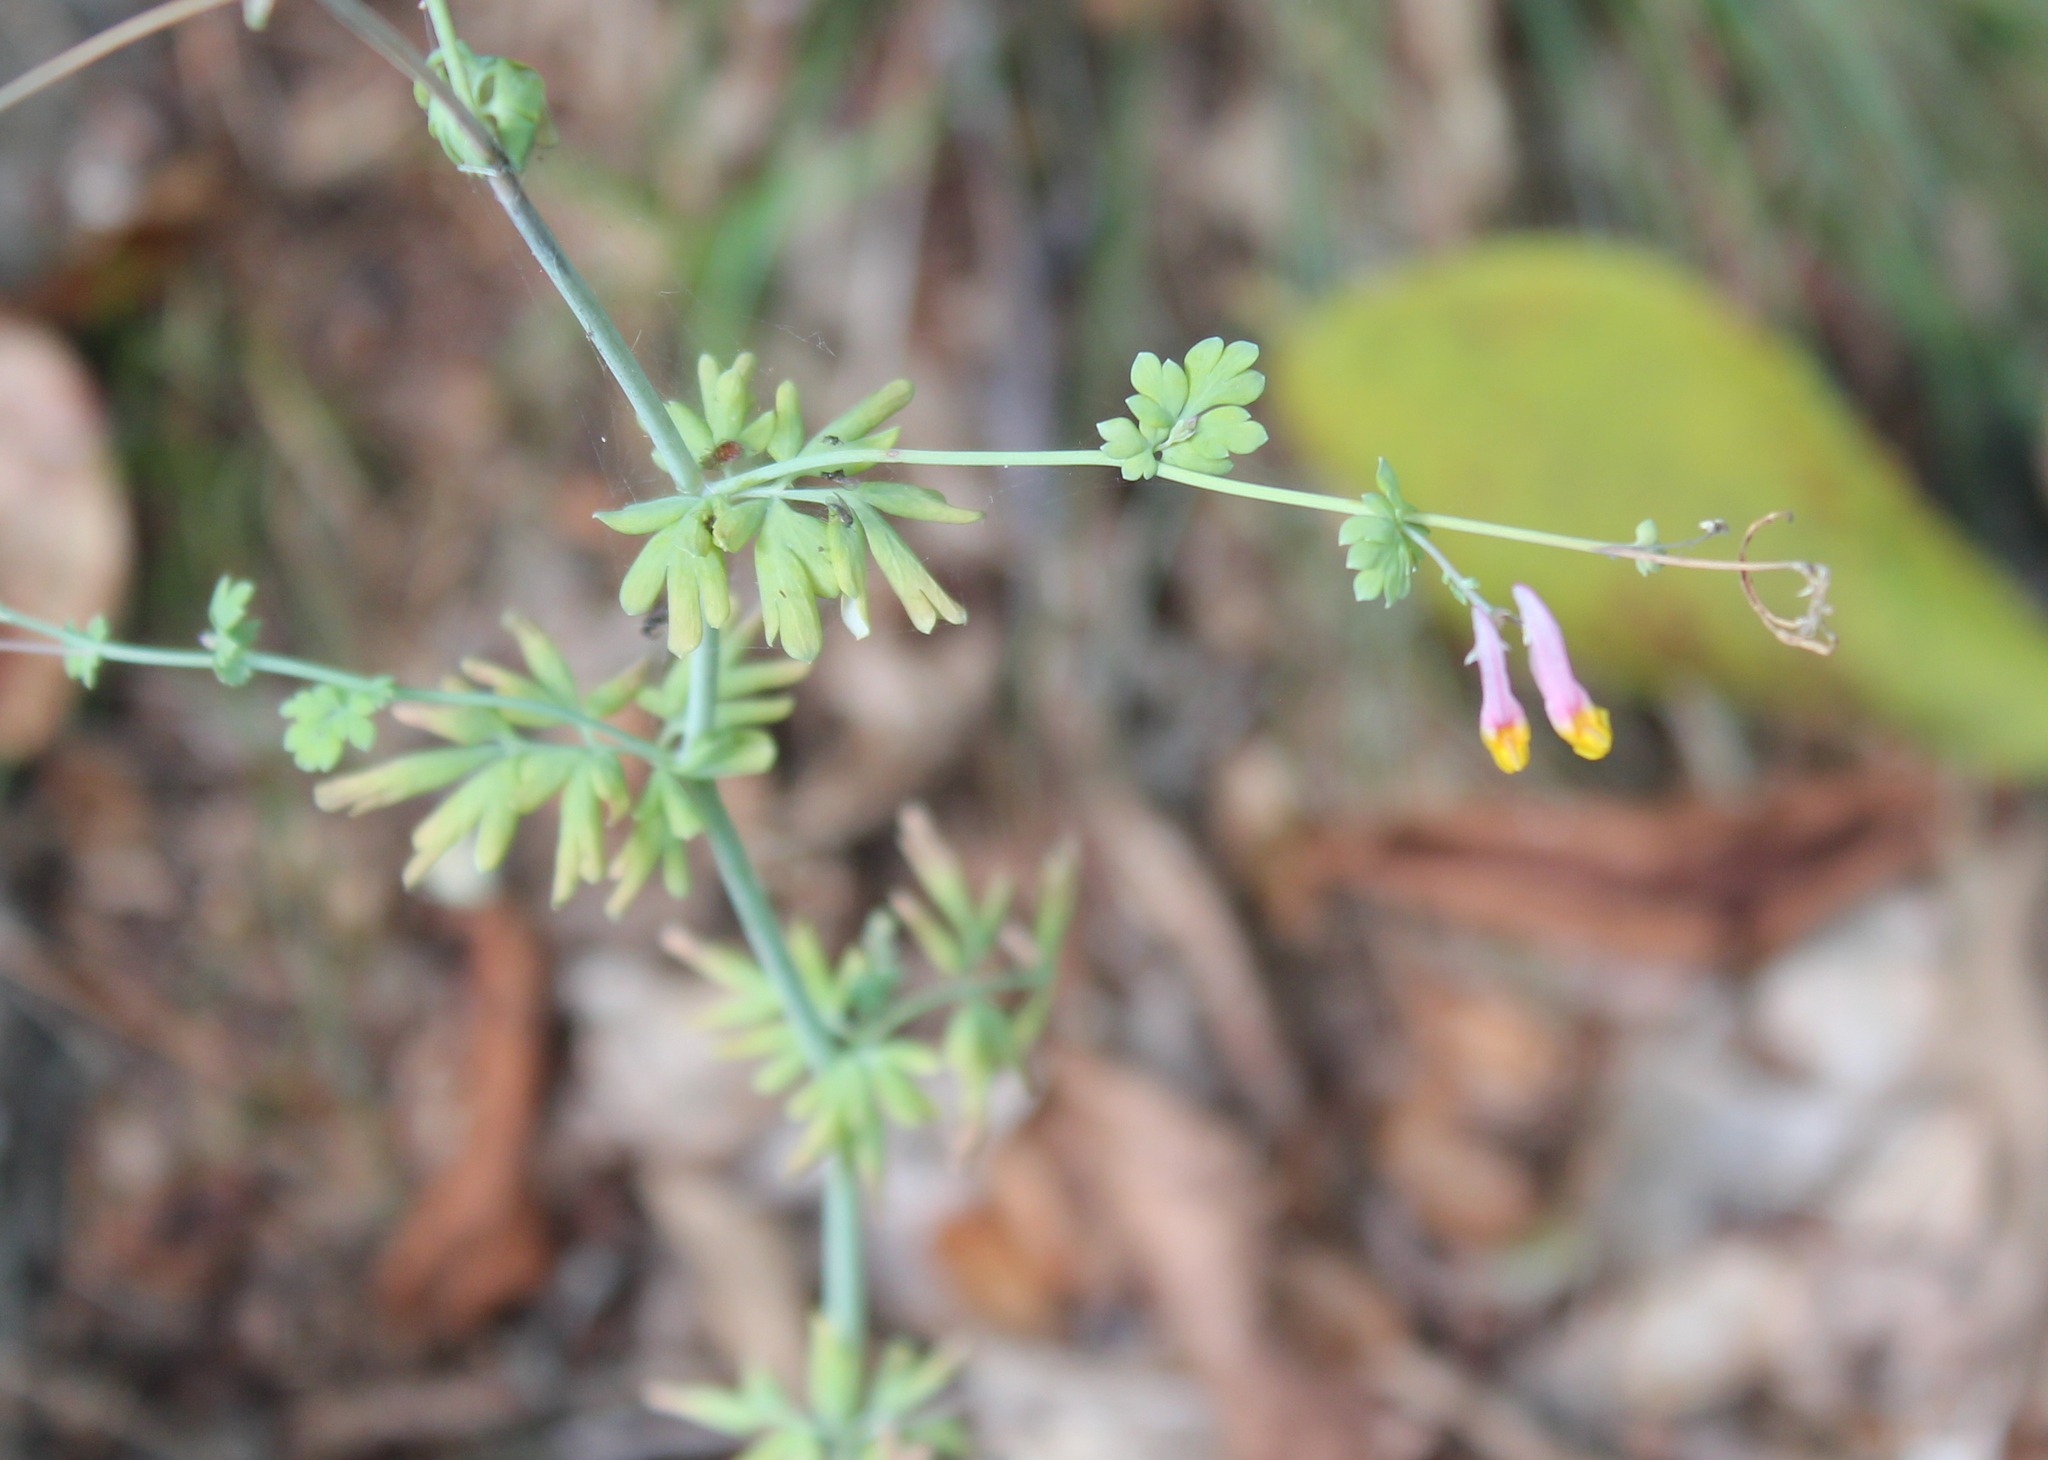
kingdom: Plantae
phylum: Tracheophyta
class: Magnoliopsida
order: Ranunculales
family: Papaveraceae
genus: Capnoides
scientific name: Capnoides sempervirens
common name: Rock harlequin
